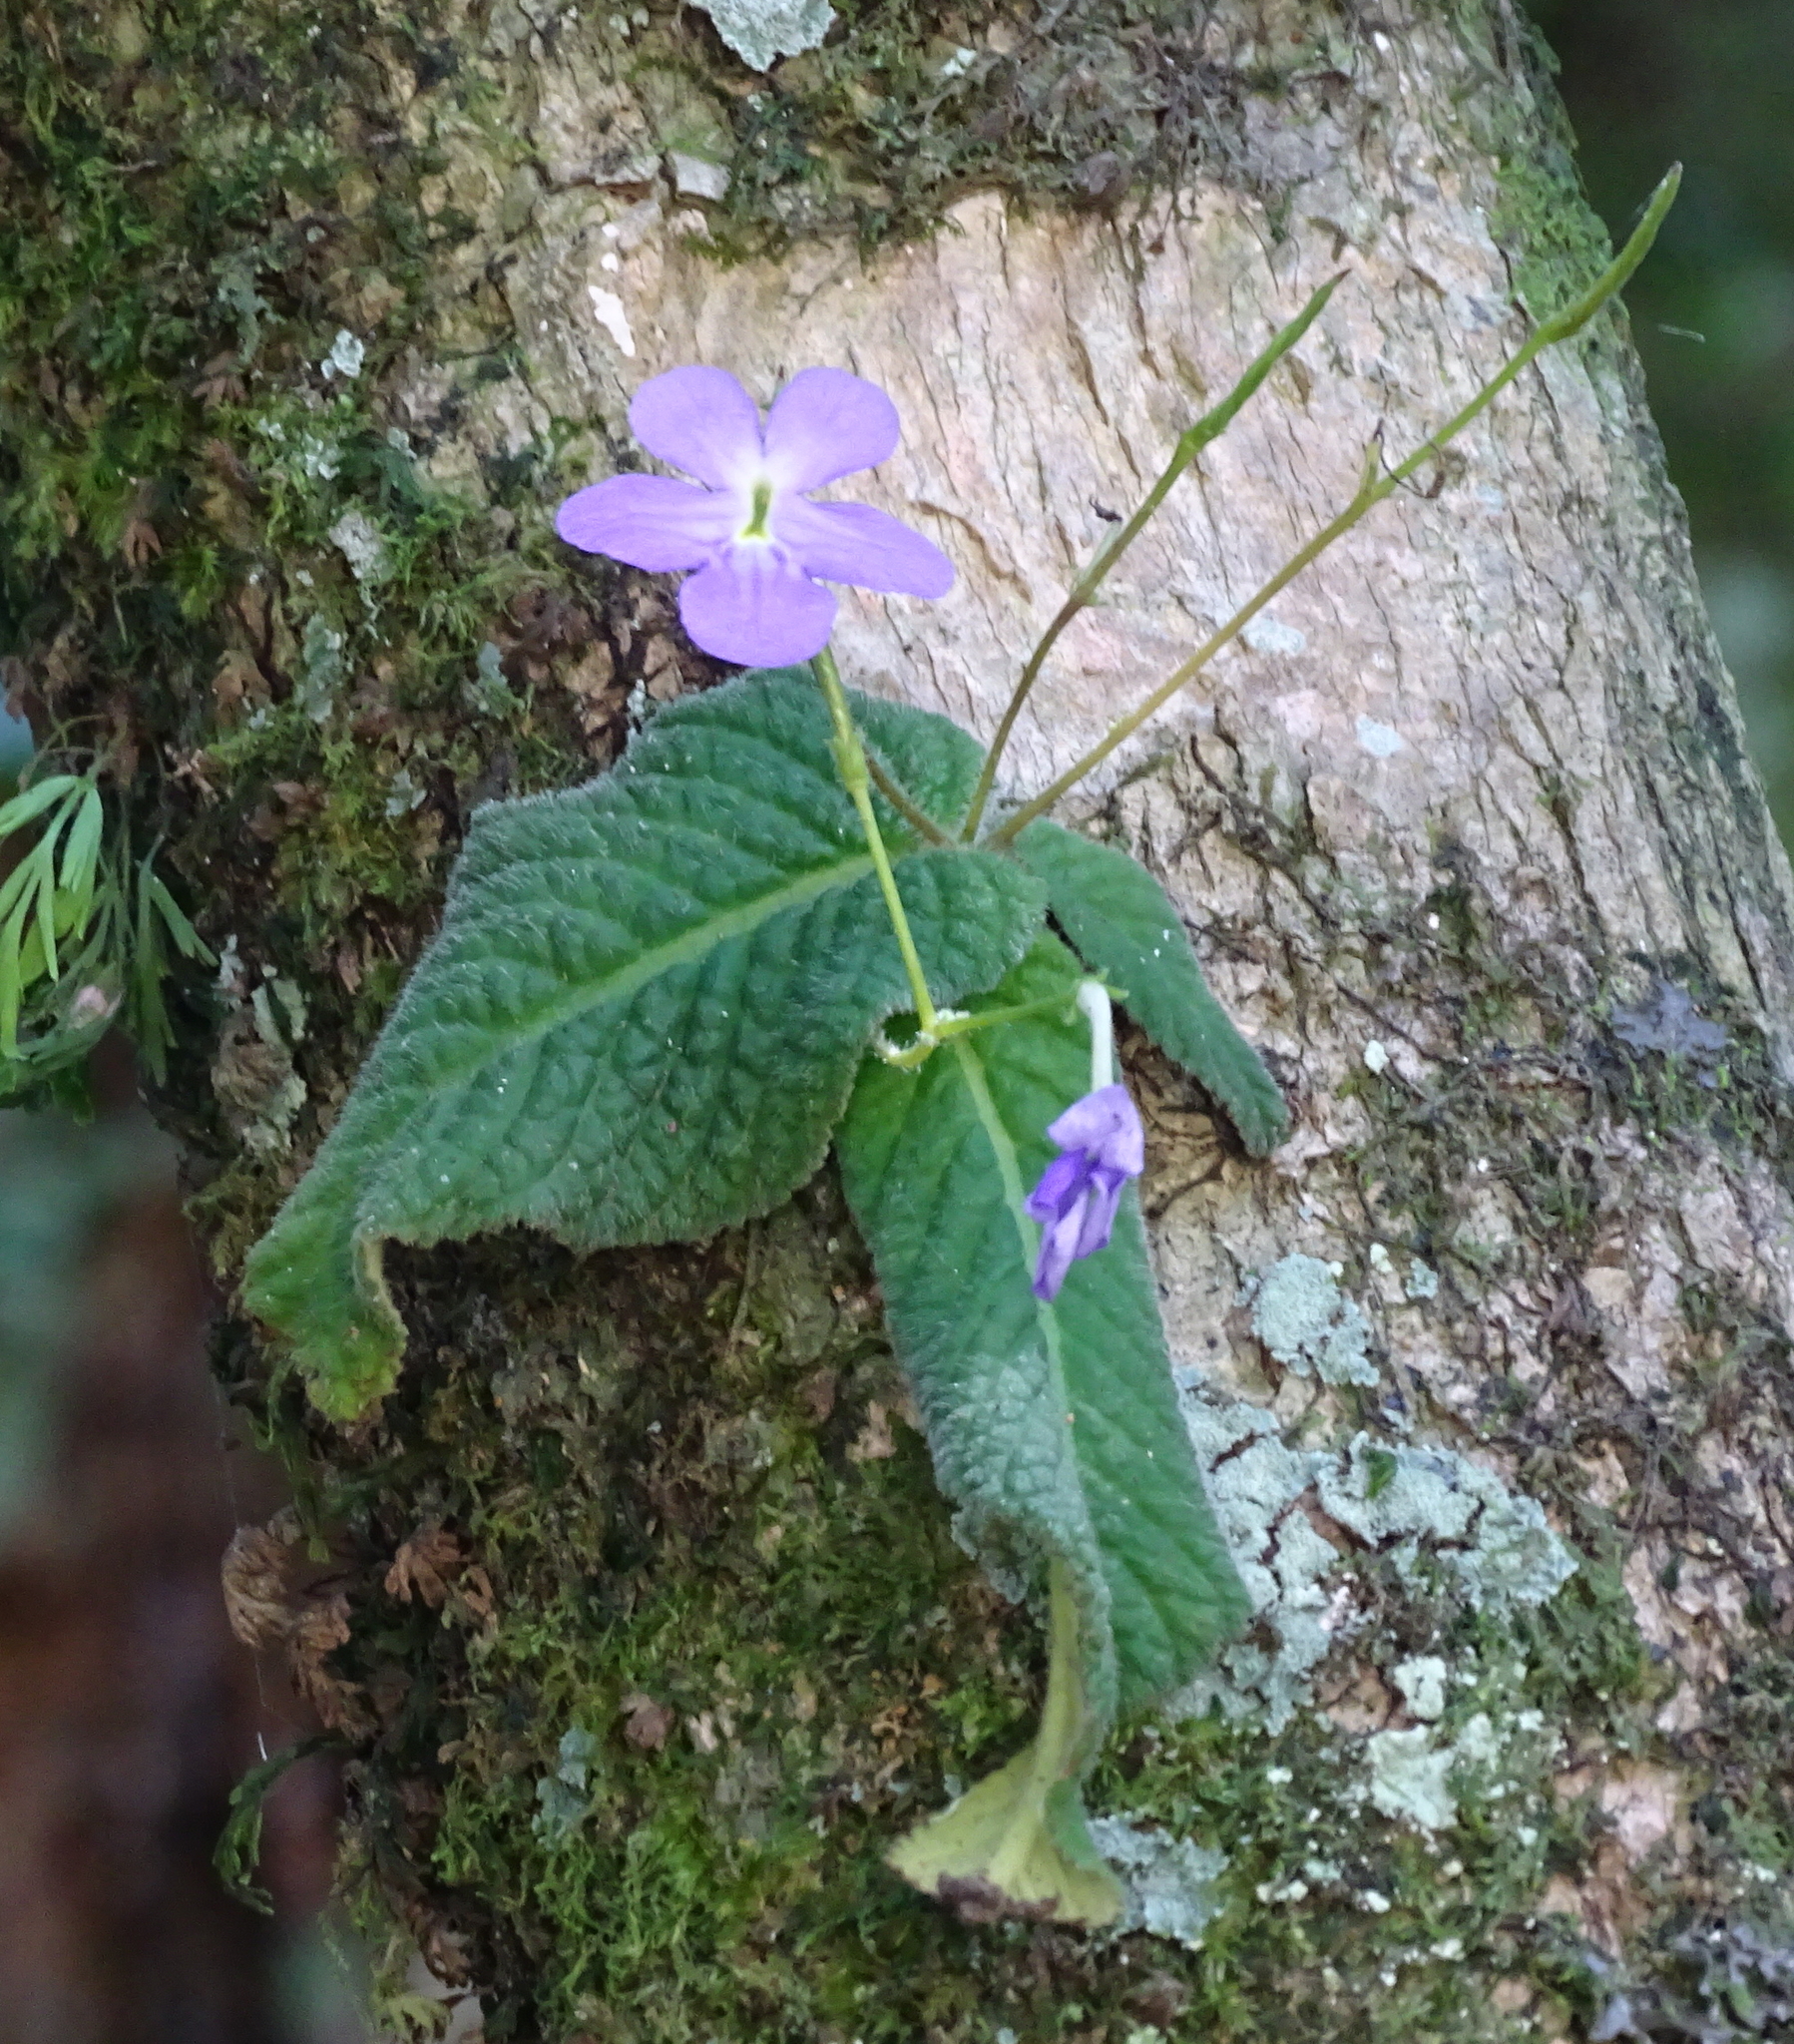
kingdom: Plantae
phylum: Tracheophyta
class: Magnoliopsida
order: Lamiales
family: Gesneriaceae
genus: Streptocarpus
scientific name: Streptocarpus silvaticus
